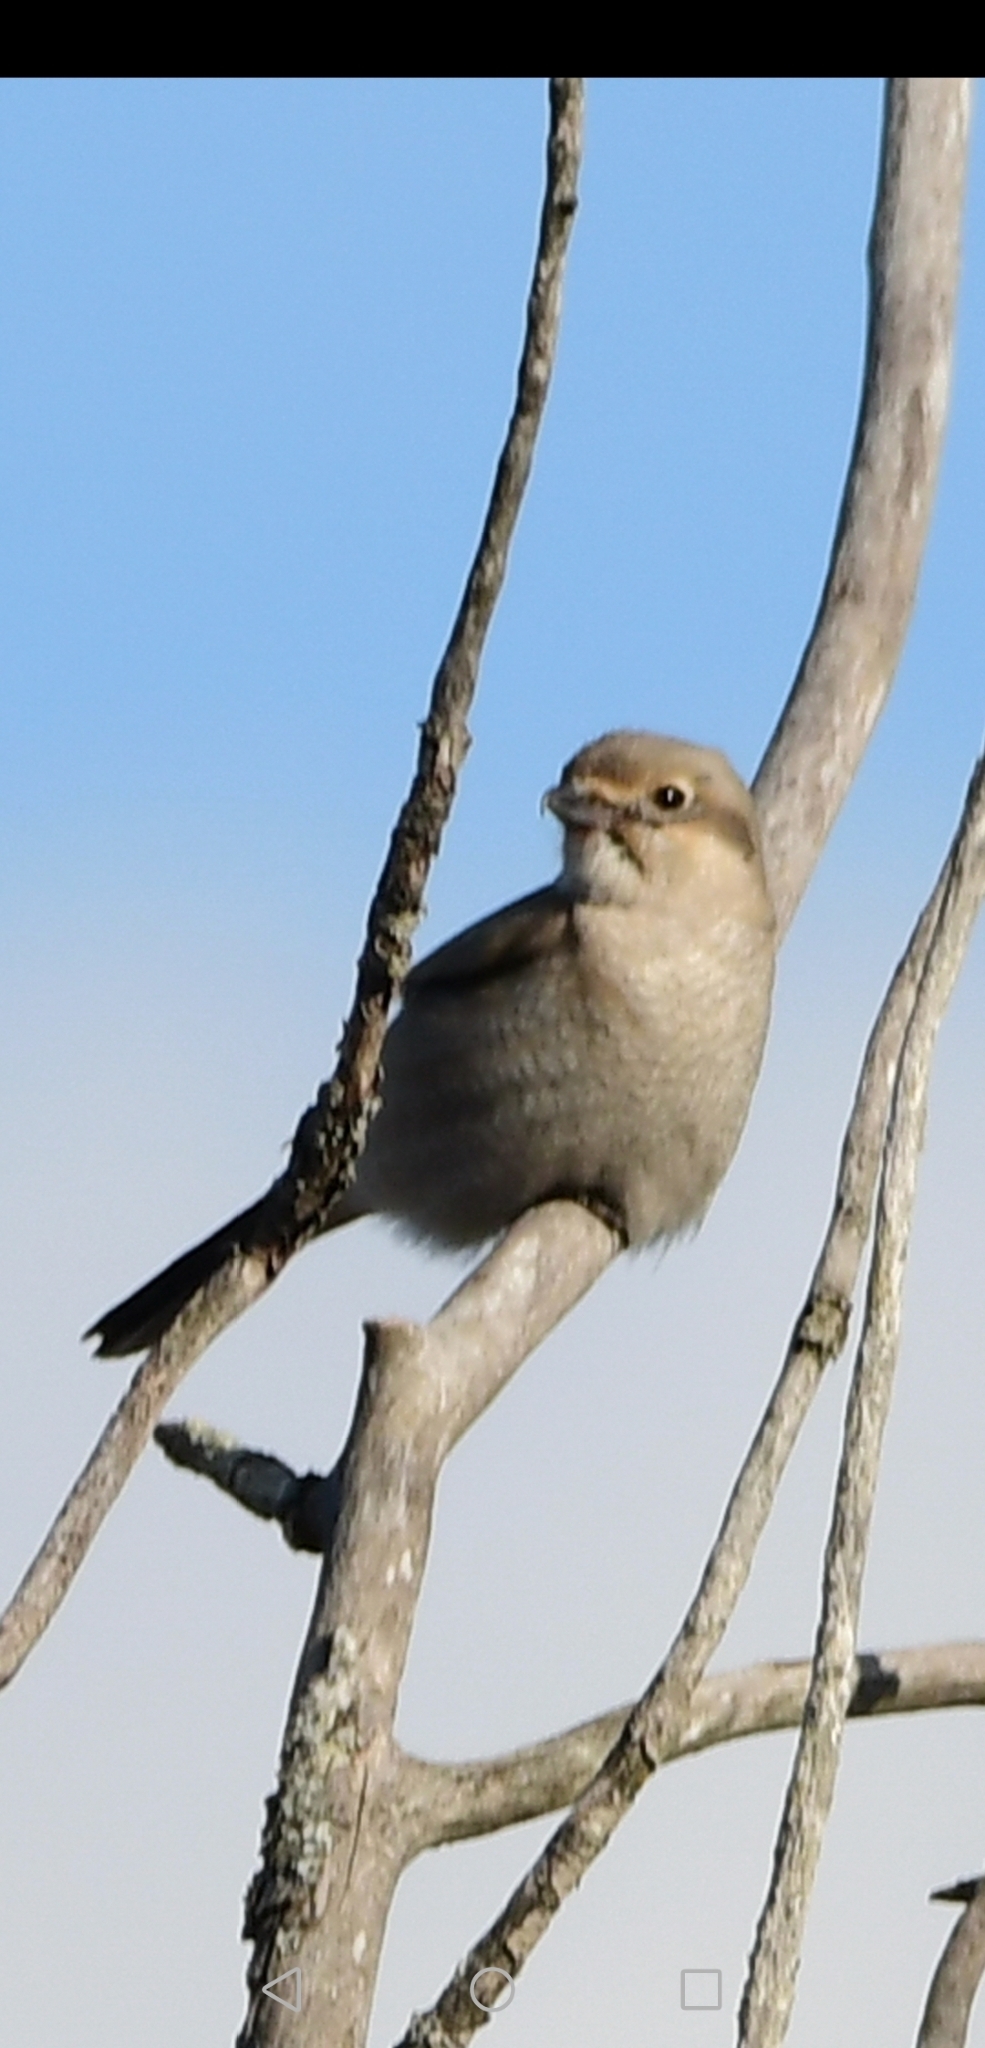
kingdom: Animalia
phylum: Chordata
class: Aves
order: Passeriformes
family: Laniidae
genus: Lanius
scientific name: Lanius borealis
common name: Northern shrike
